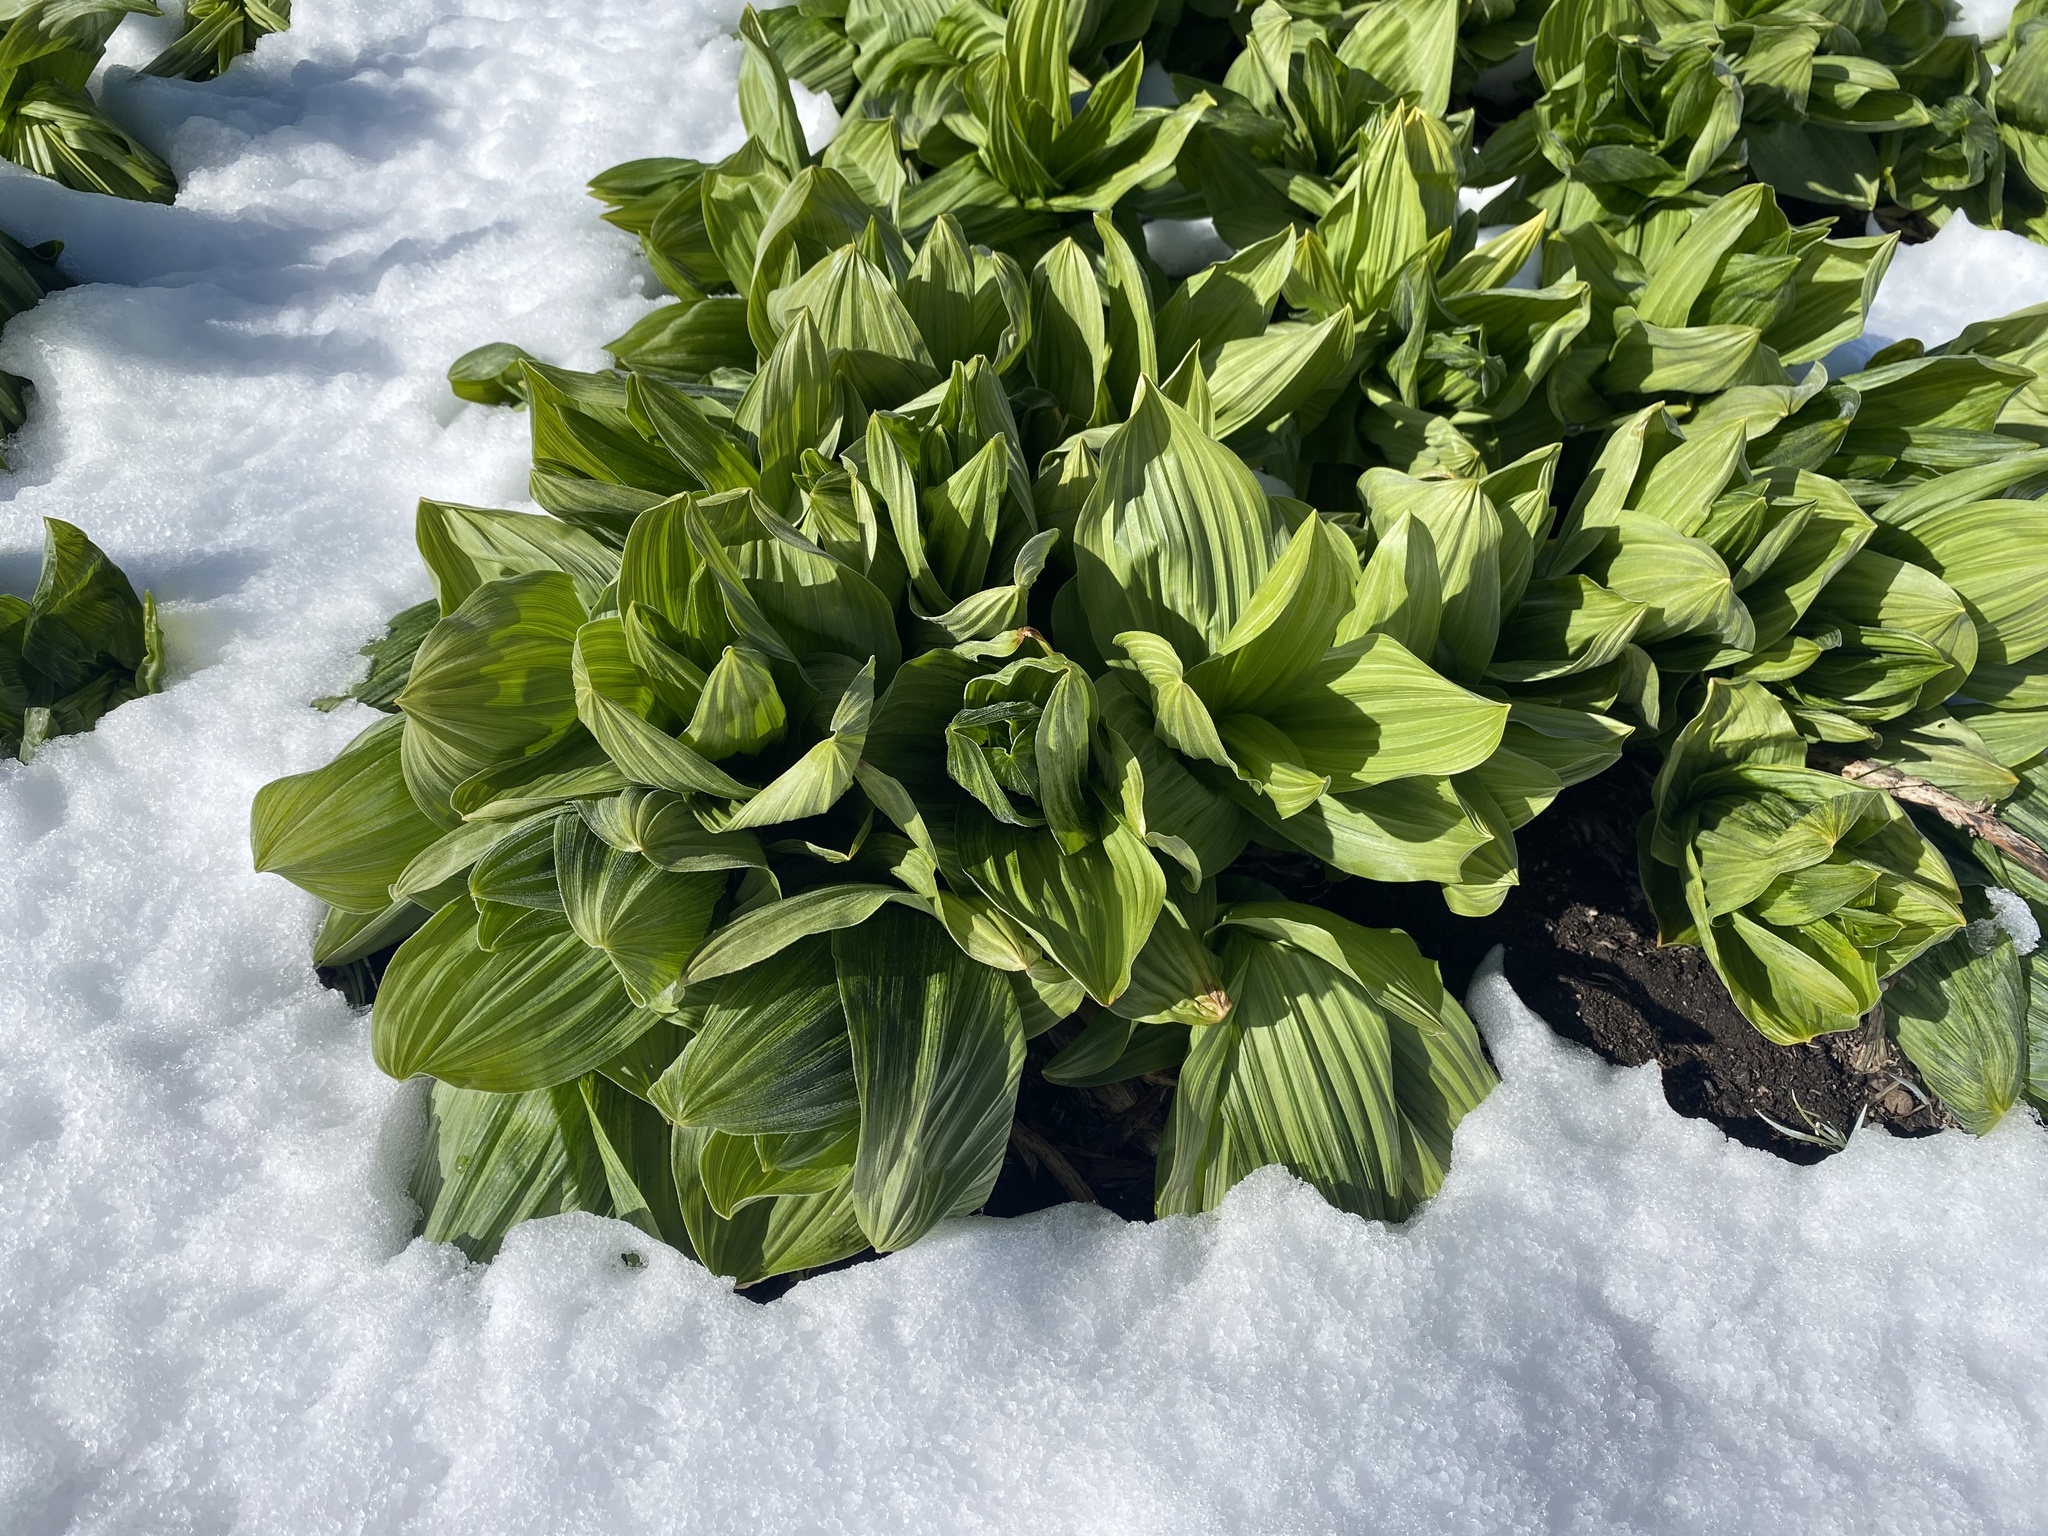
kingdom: Plantae
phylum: Tracheophyta
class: Liliopsida
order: Liliales
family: Melanthiaceae
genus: Veratrum
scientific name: Veratrum californicum
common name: California veratrum
